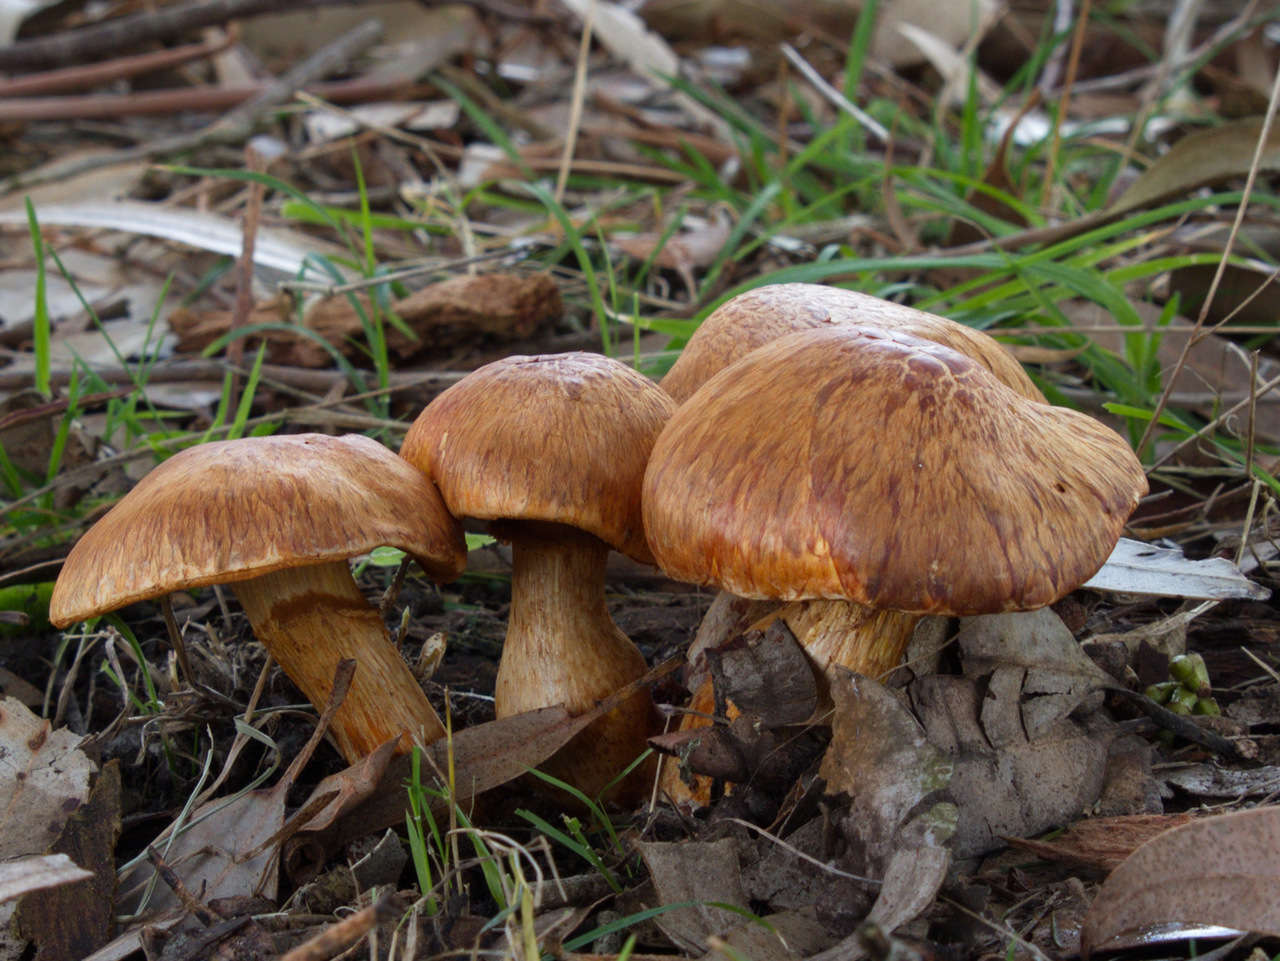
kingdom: Fungi
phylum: Basidiomycota
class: Agaricomycetes
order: Agaricales
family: Hymenogastraceae
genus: Gymnopilus
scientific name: Gymnopilus junonius
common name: Spectacular rustgill
